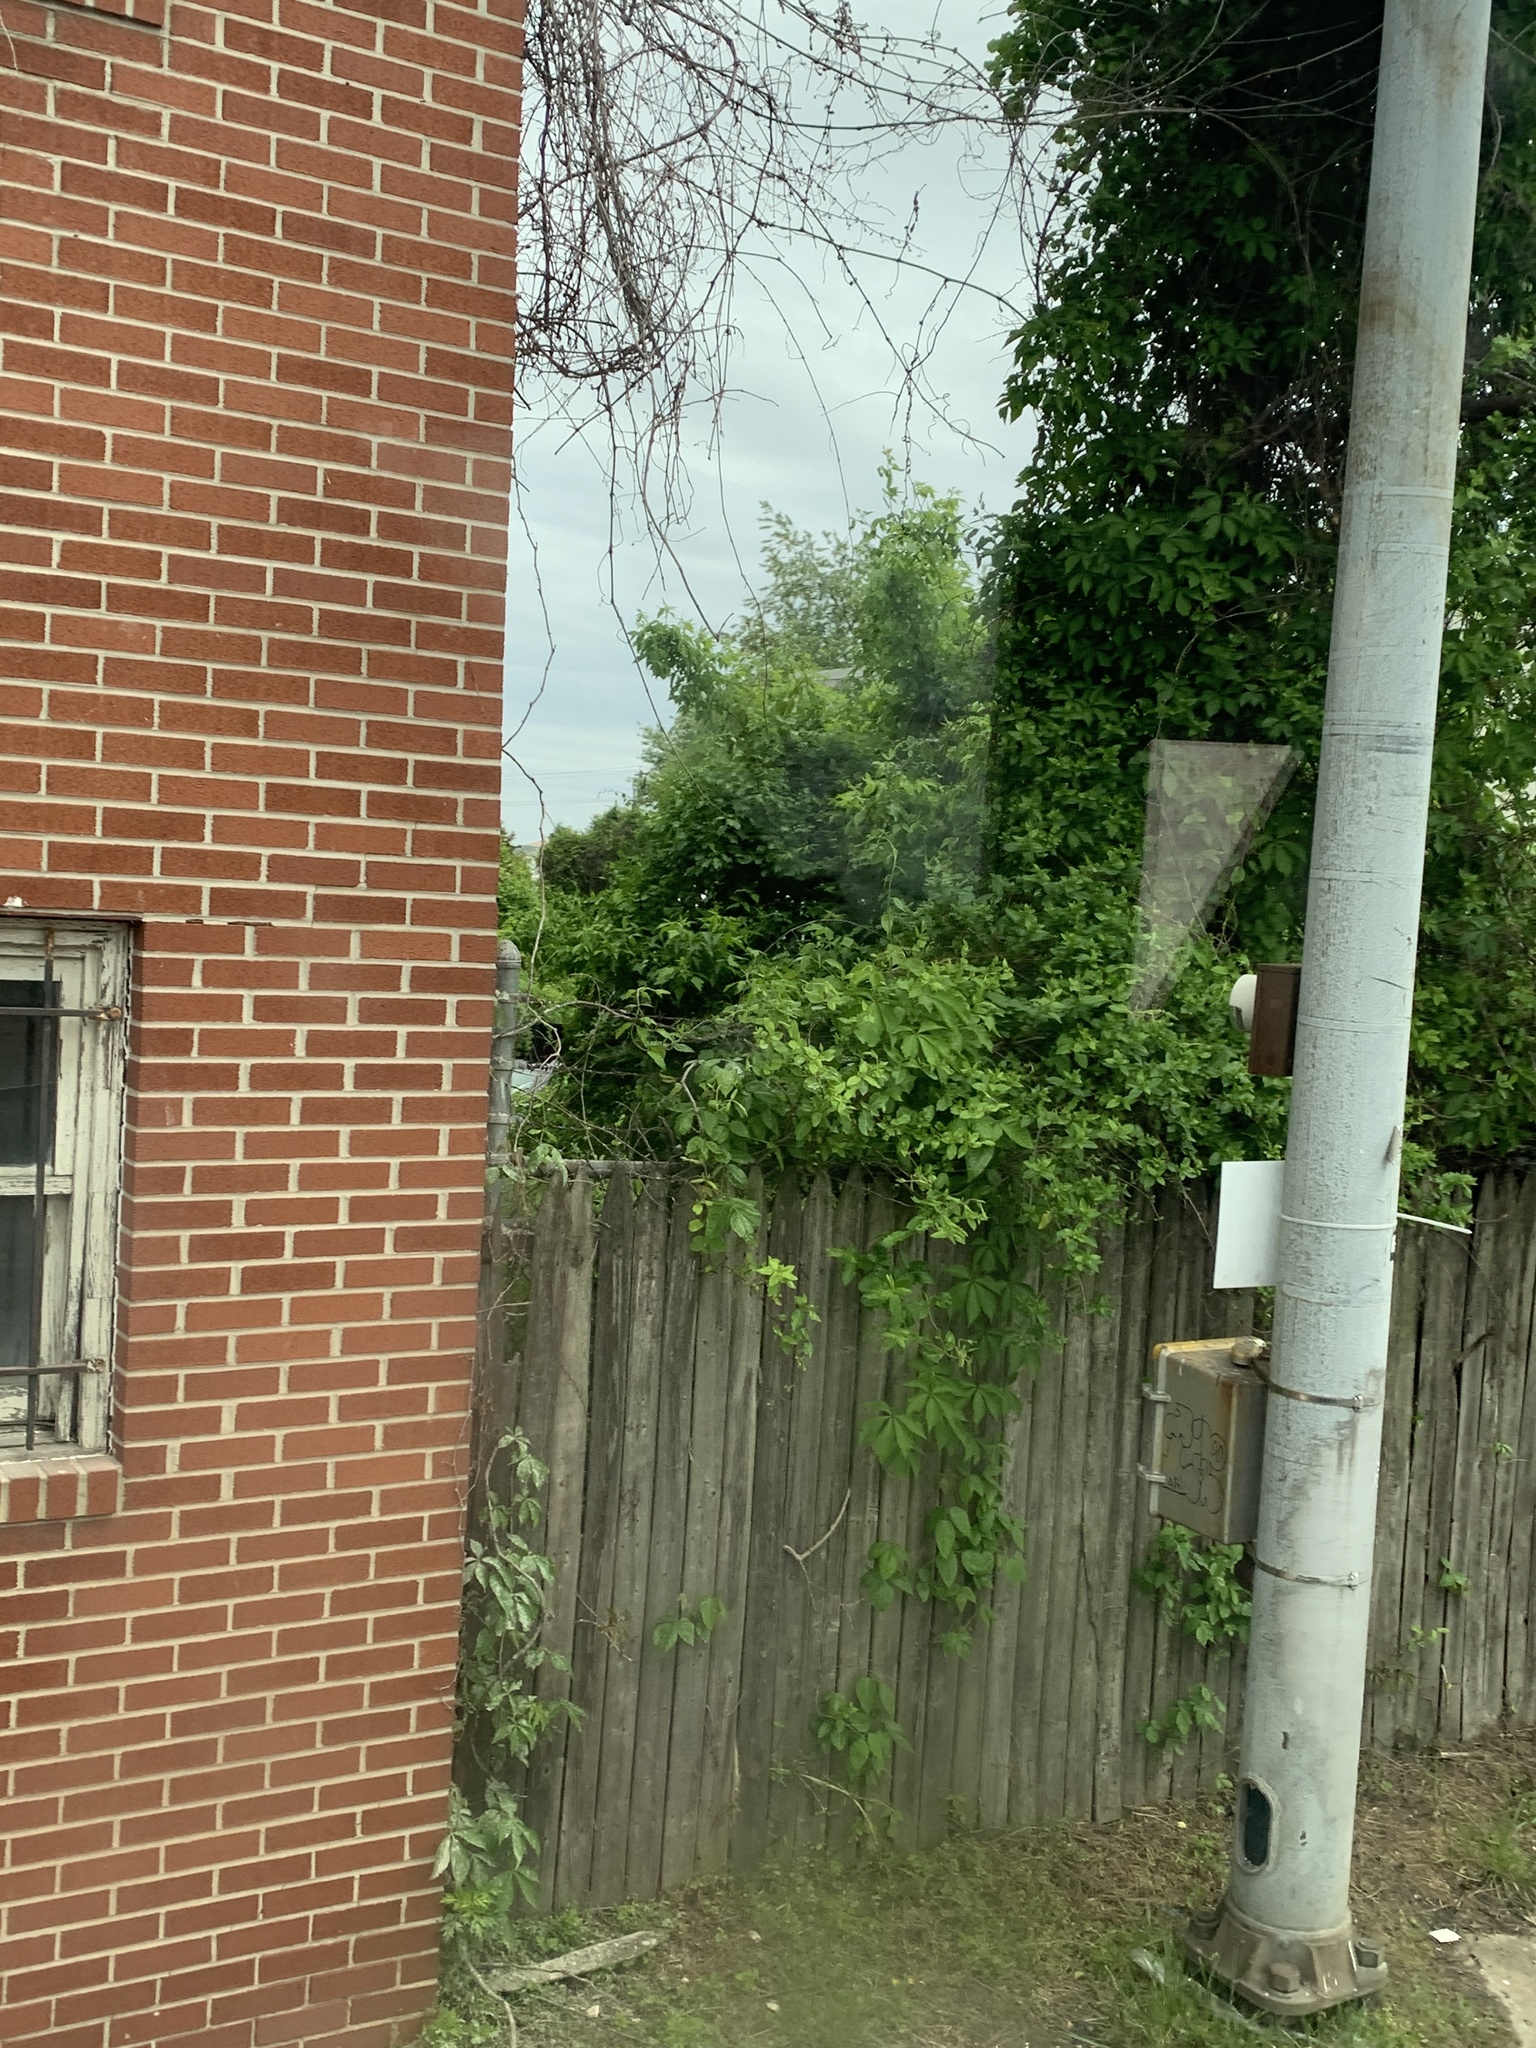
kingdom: Plantae
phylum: Tracheophyta
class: Magnoliopsida
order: Vitales
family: Vitaceae
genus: Parthenocissus
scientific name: Parthenocissus quinquefolia
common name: Virginia-creeper
